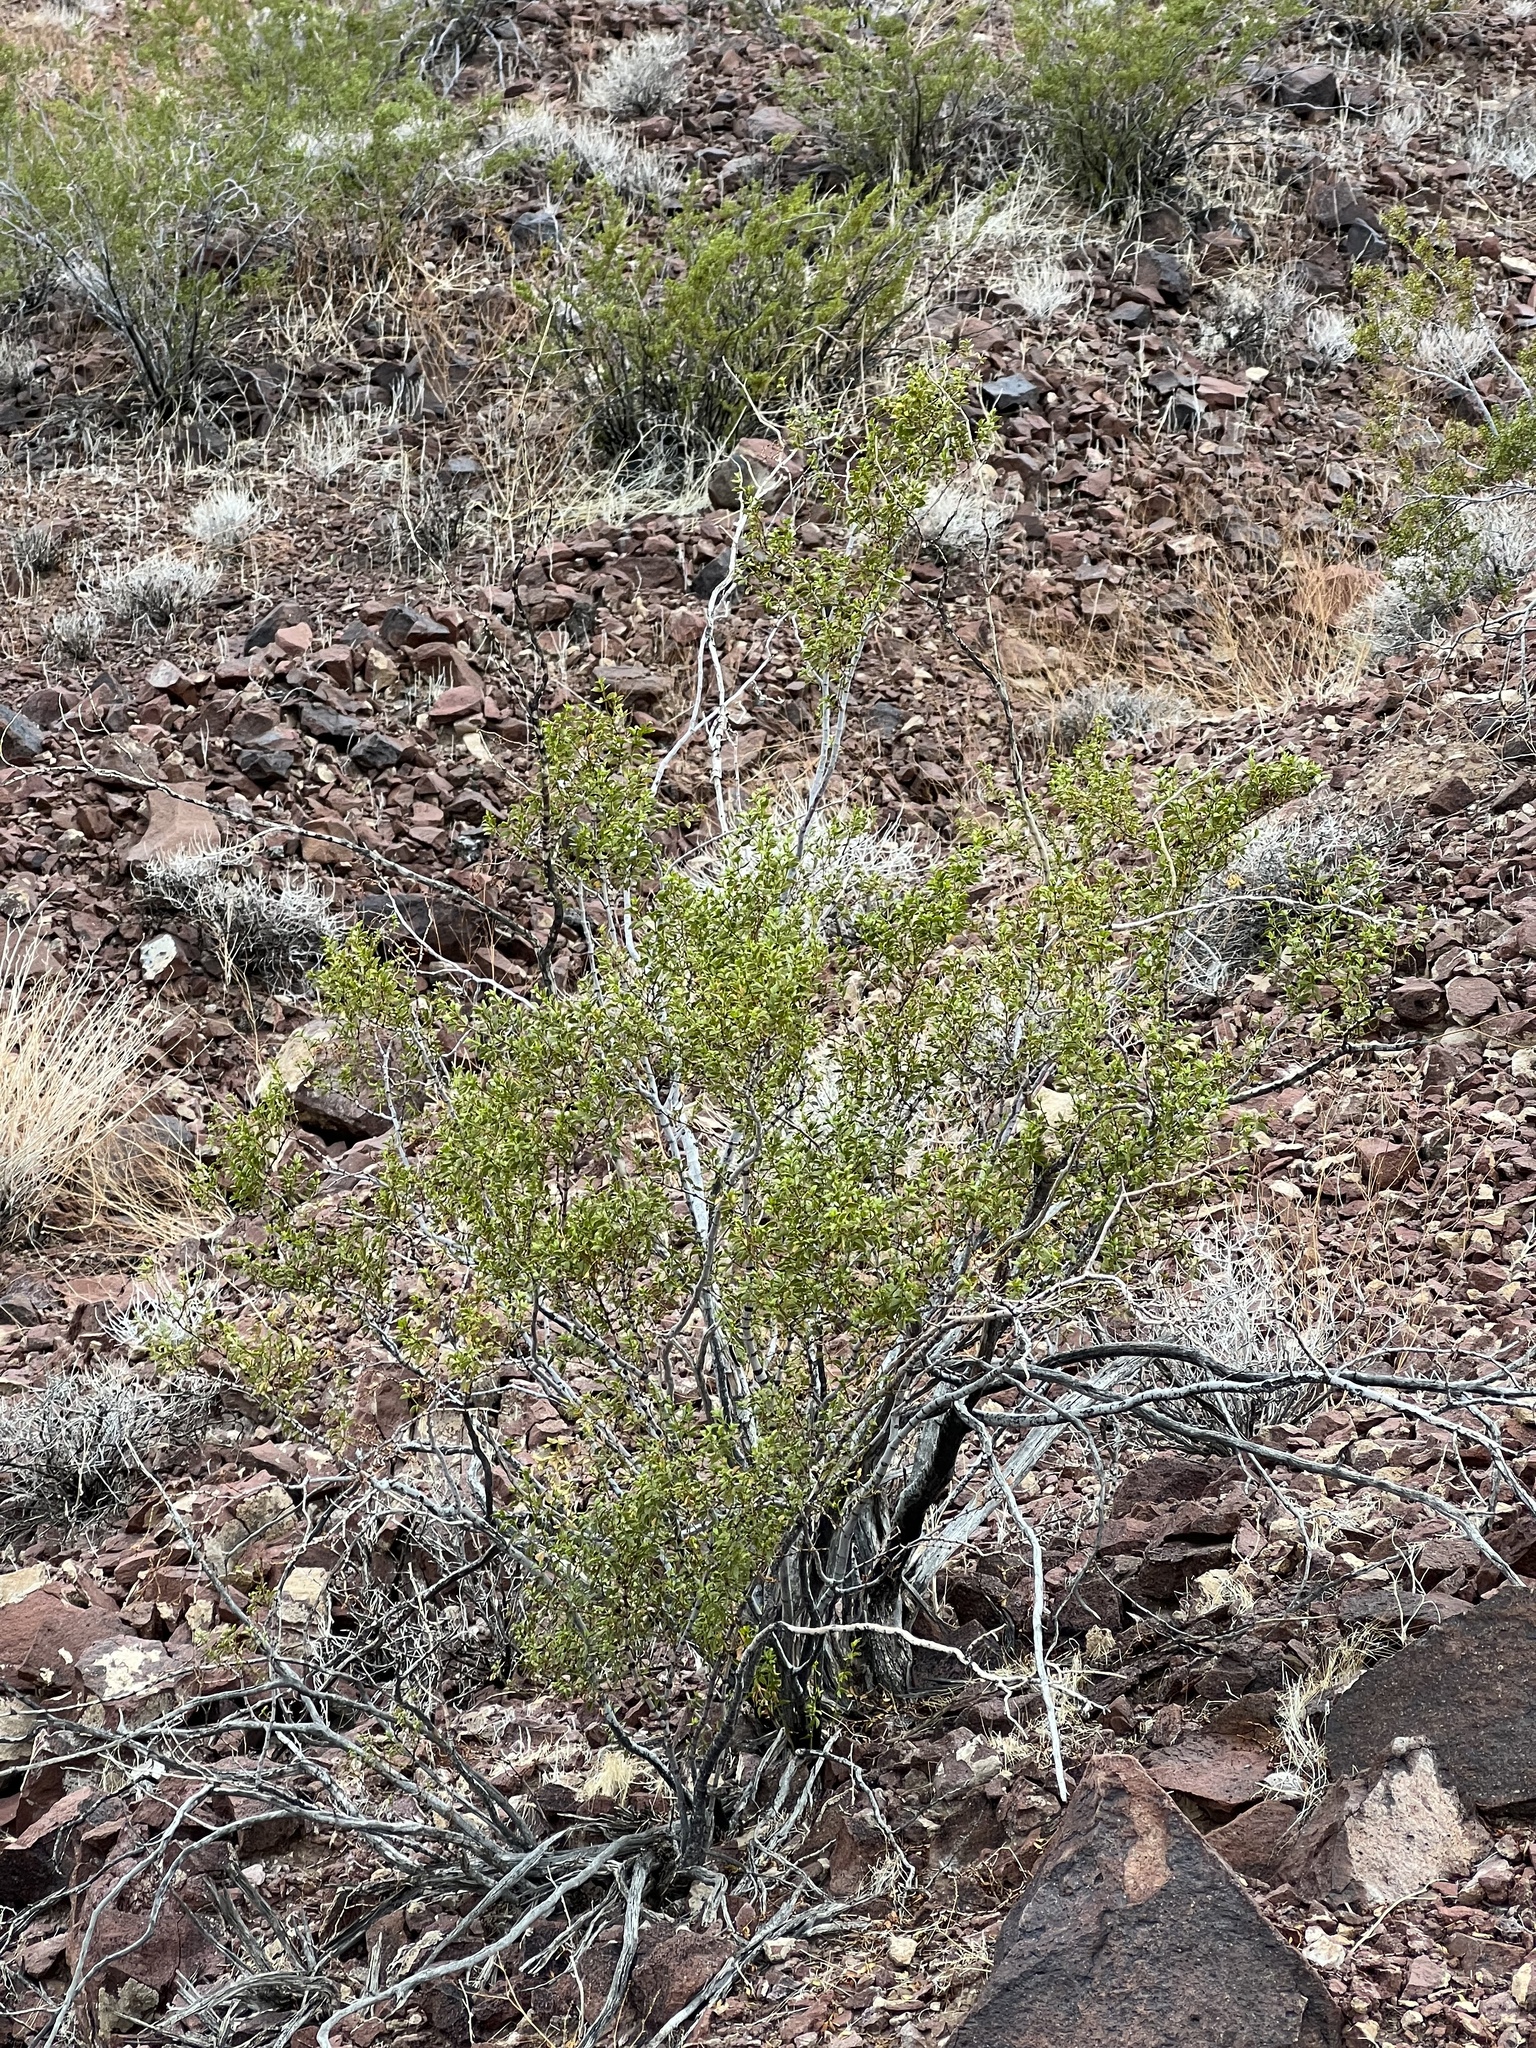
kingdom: Plantae
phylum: Tracheophyta
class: Magnoliopsida
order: Zygophyllales
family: Zygophyllaceae
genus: Larrea
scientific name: Larrea tridentata
